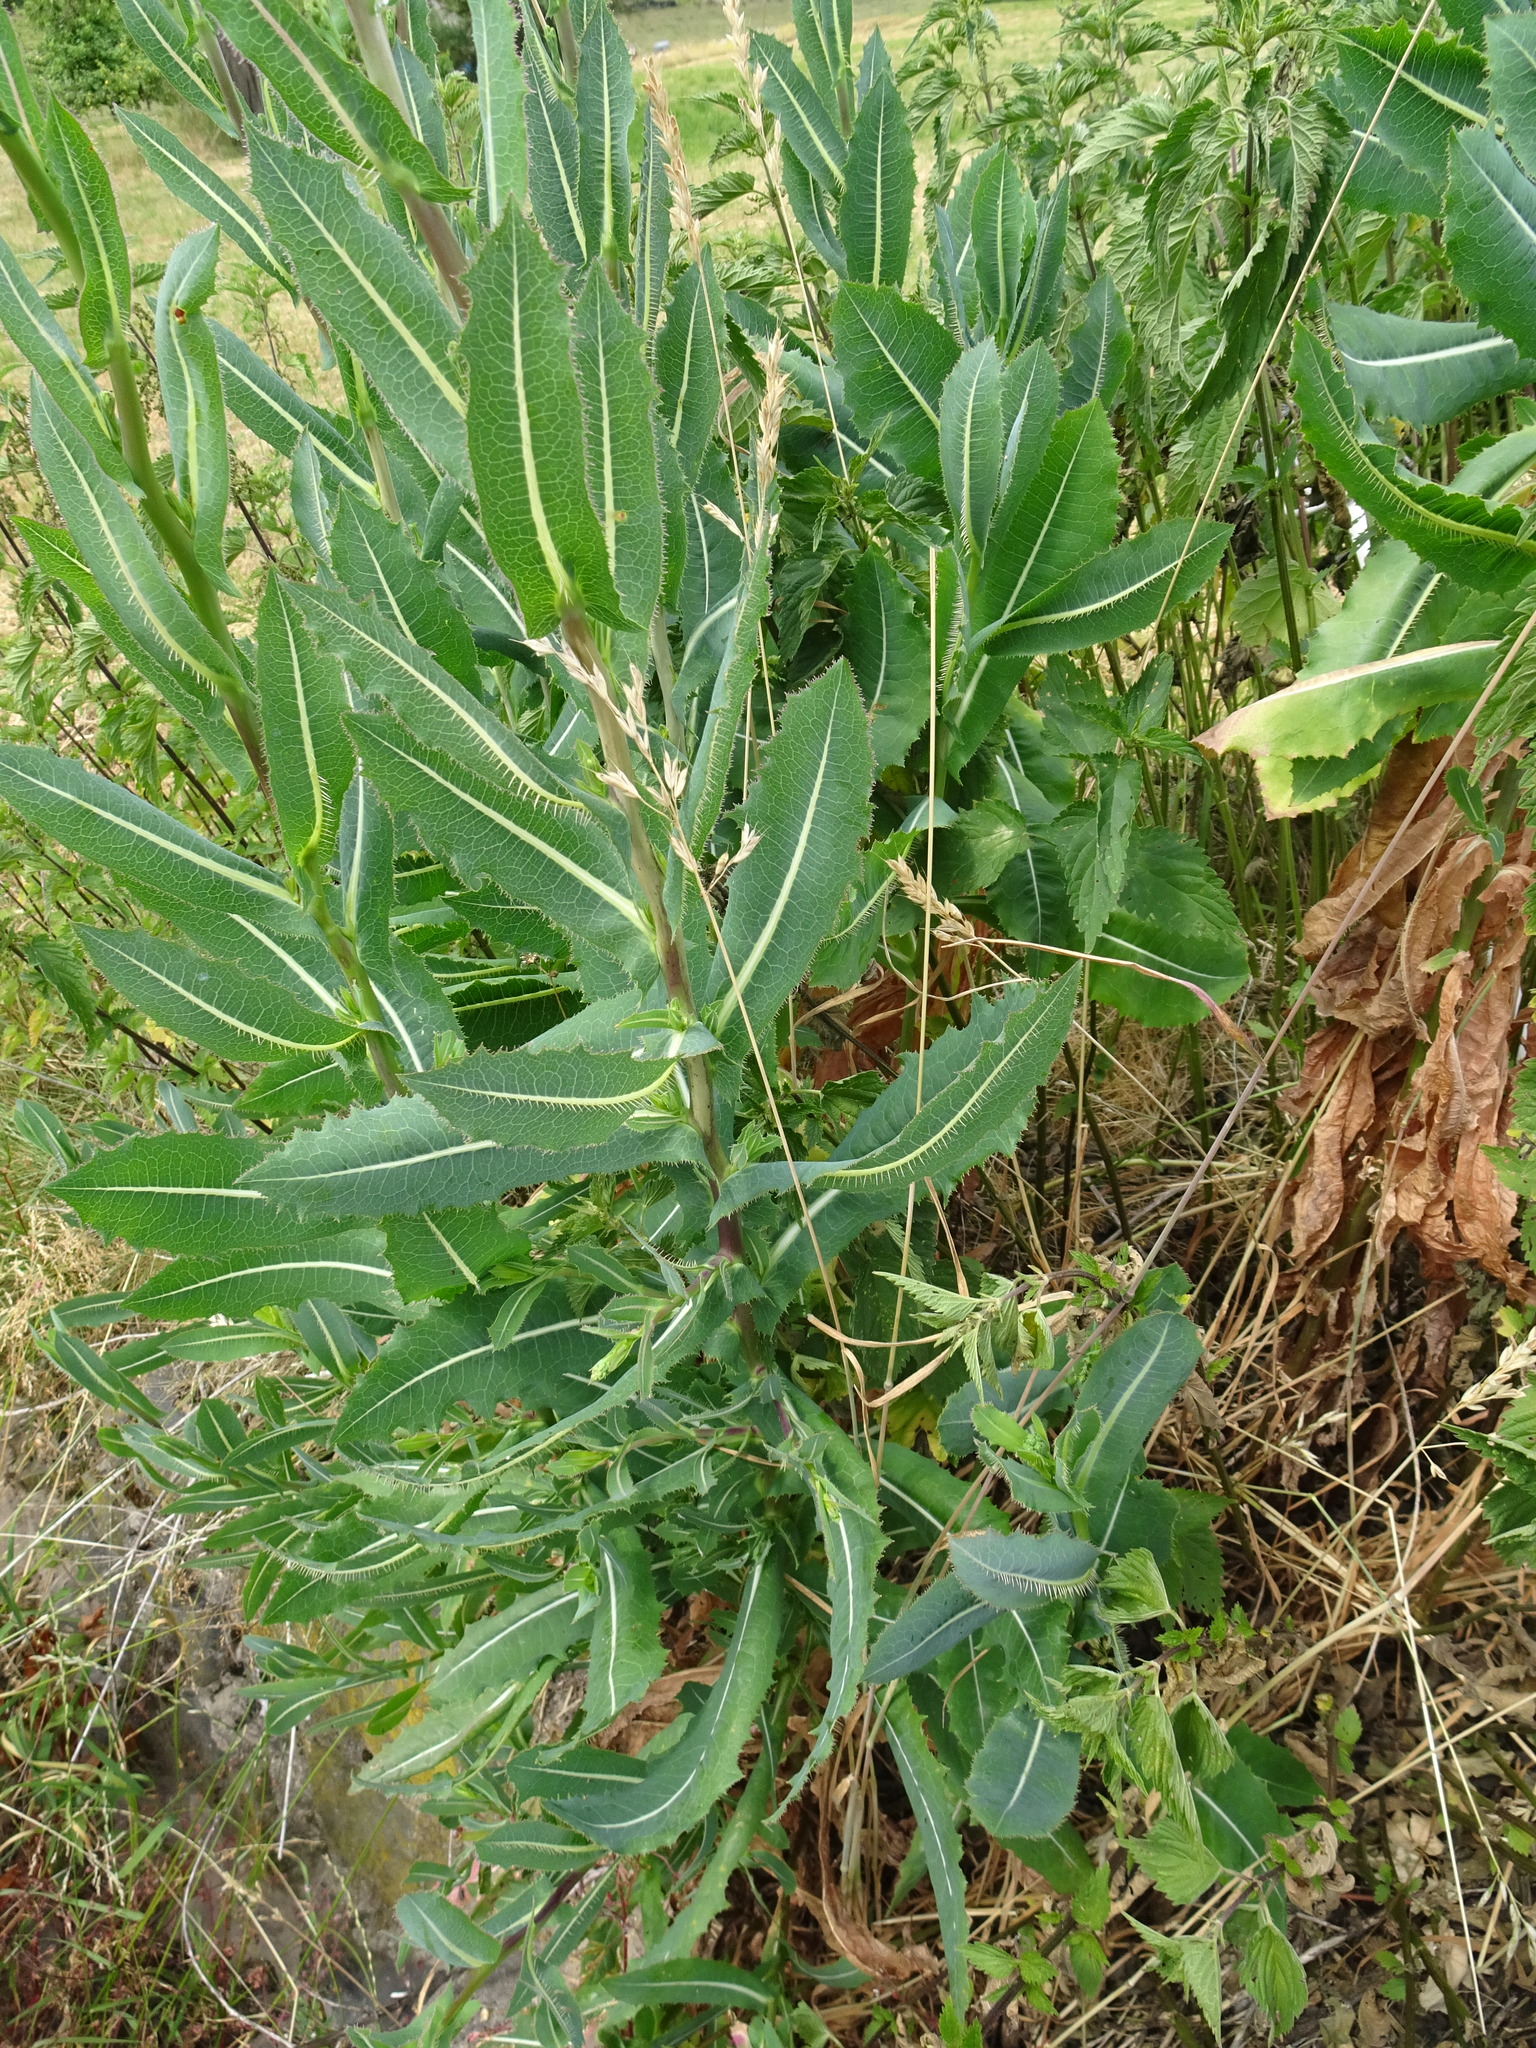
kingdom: Plantae
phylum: Tracheophyta
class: Magnoliopsida
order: Asterales
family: Asteraceae
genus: Lactuca
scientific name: Lactuca serriola
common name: Prickly lettuce
